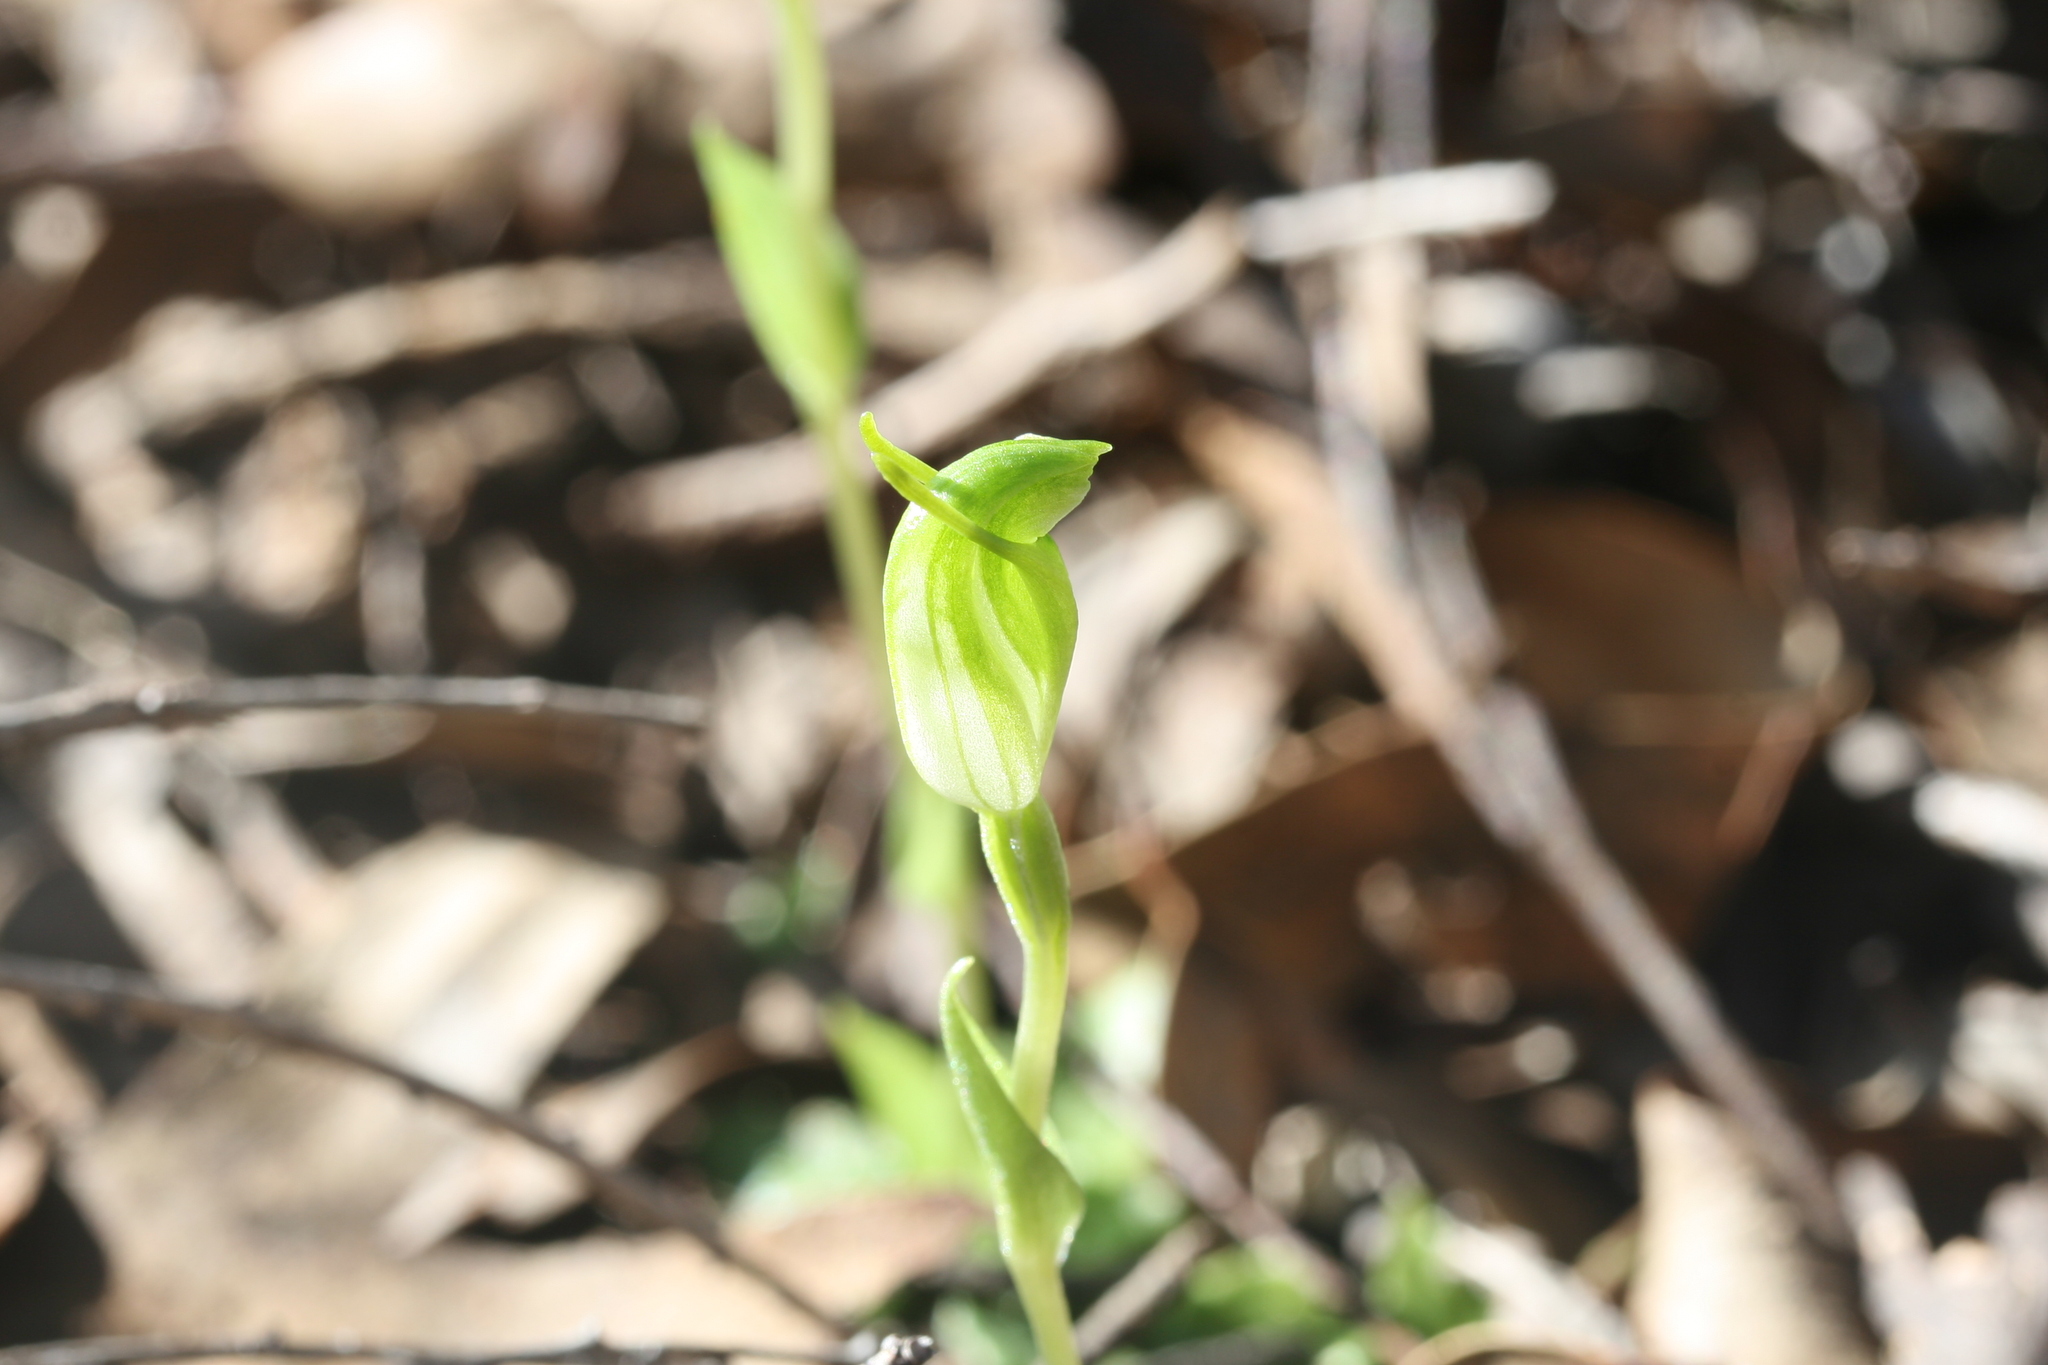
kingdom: Plantae
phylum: Tracheophyta
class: Liliopsida
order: Asparagales
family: Orchidaceae
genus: Pterostylis
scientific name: Pterostylis brevisepala
